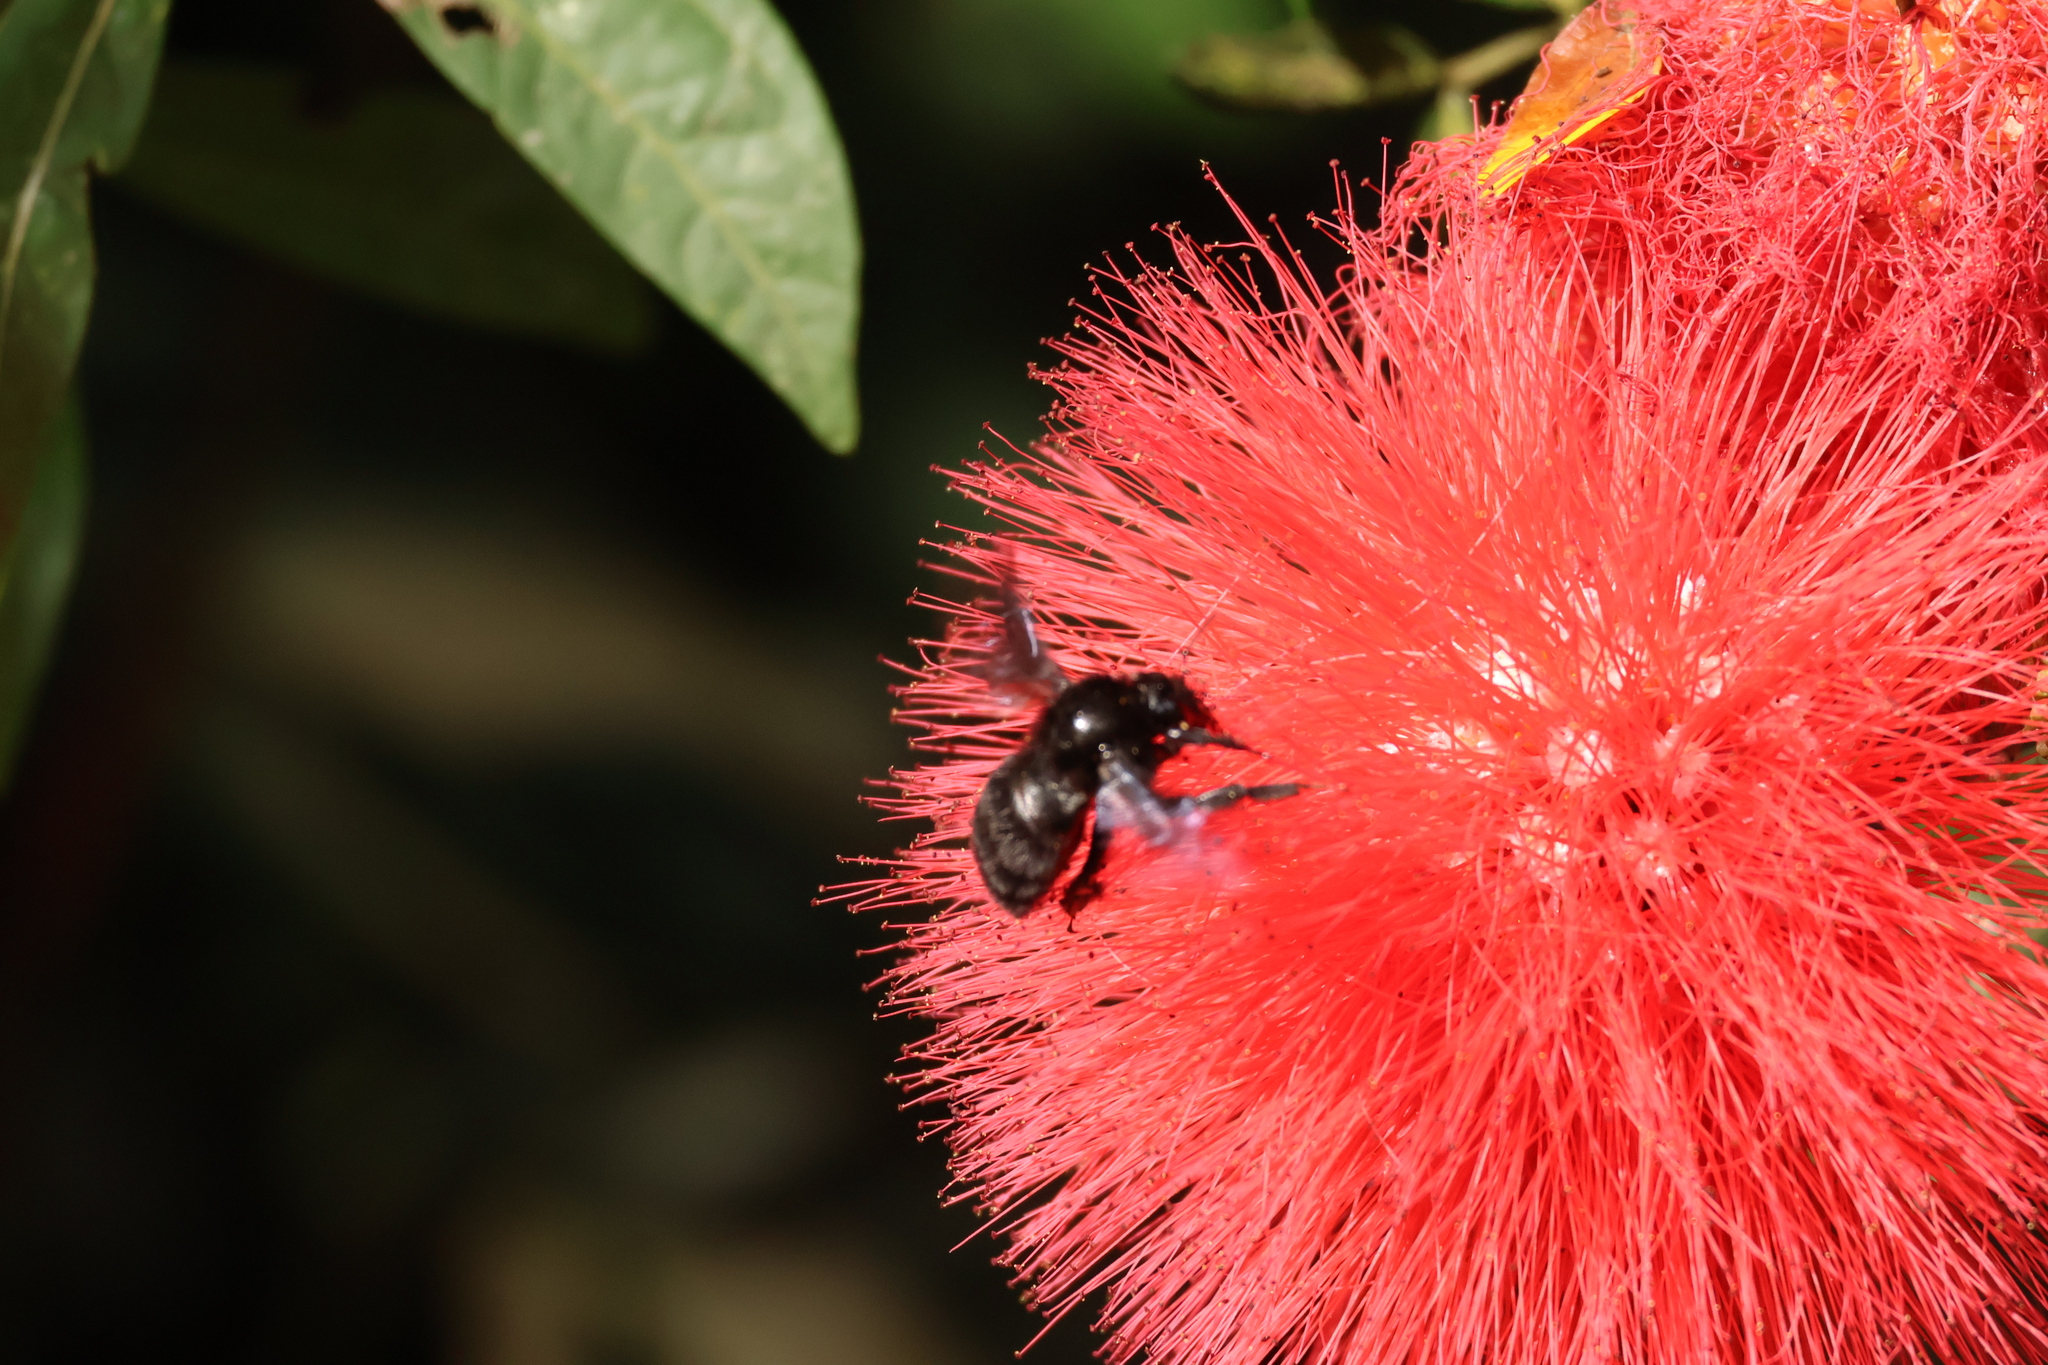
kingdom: Animalia
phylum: Arthropoda
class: Insecta
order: Hymenoptera
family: Apidae
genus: Bombus
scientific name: Bombus pullatus
